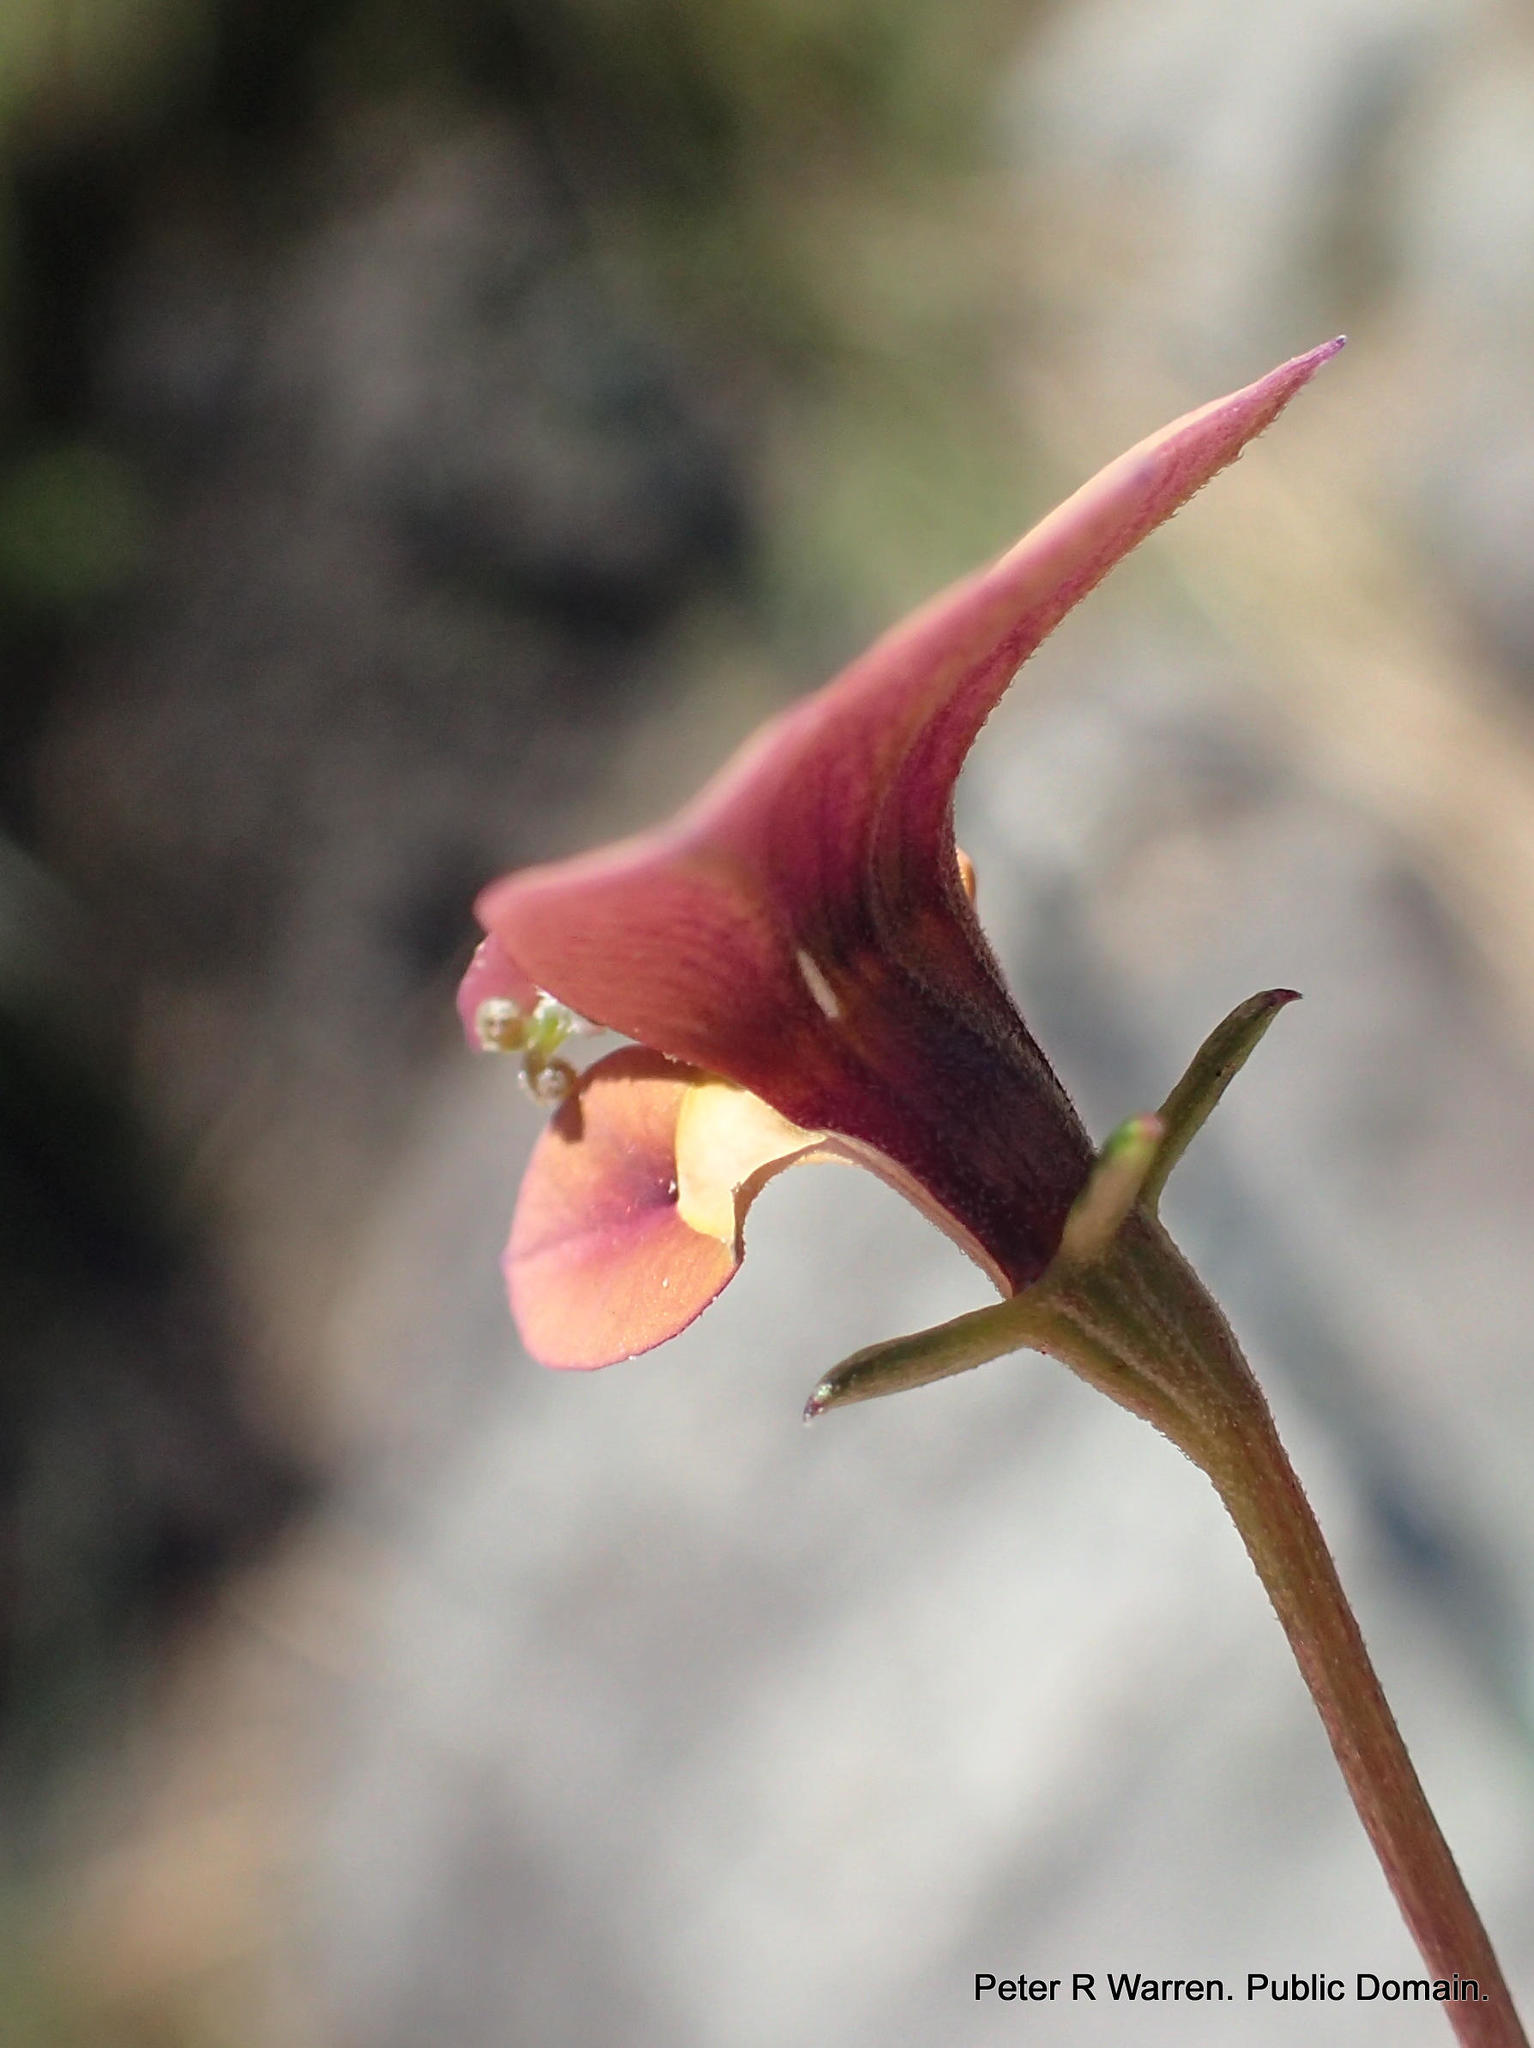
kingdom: Plantae
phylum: Tracheophyta
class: Magnoliopsida
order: Asterales
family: Campanulaceae
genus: Monopsis
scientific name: Monopsis unidentata
